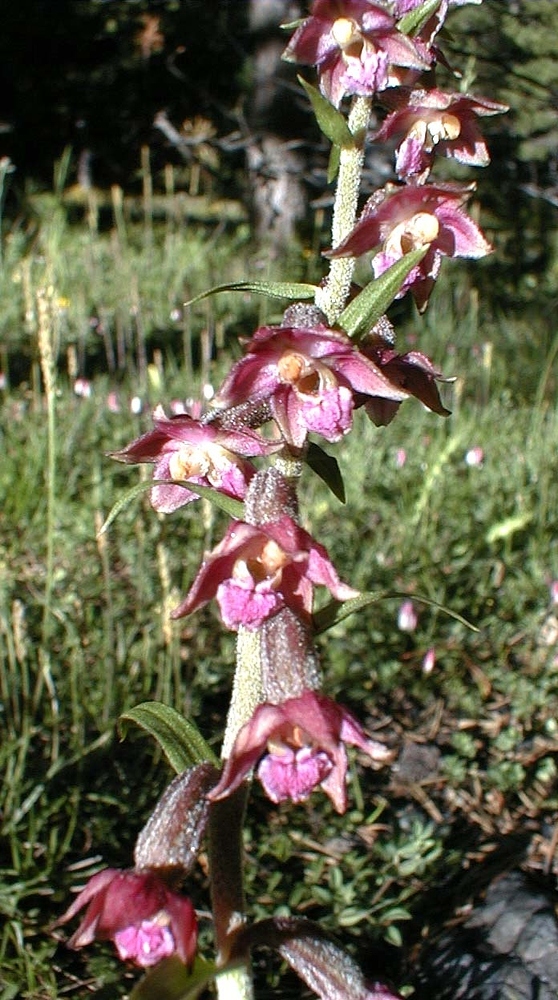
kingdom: Plantae
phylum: Tracheophyta
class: Liliopsida
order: Asparagales
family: Orchidaceae
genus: Epipactis
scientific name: Epipactis atrorubens
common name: Dark-red helleborine
